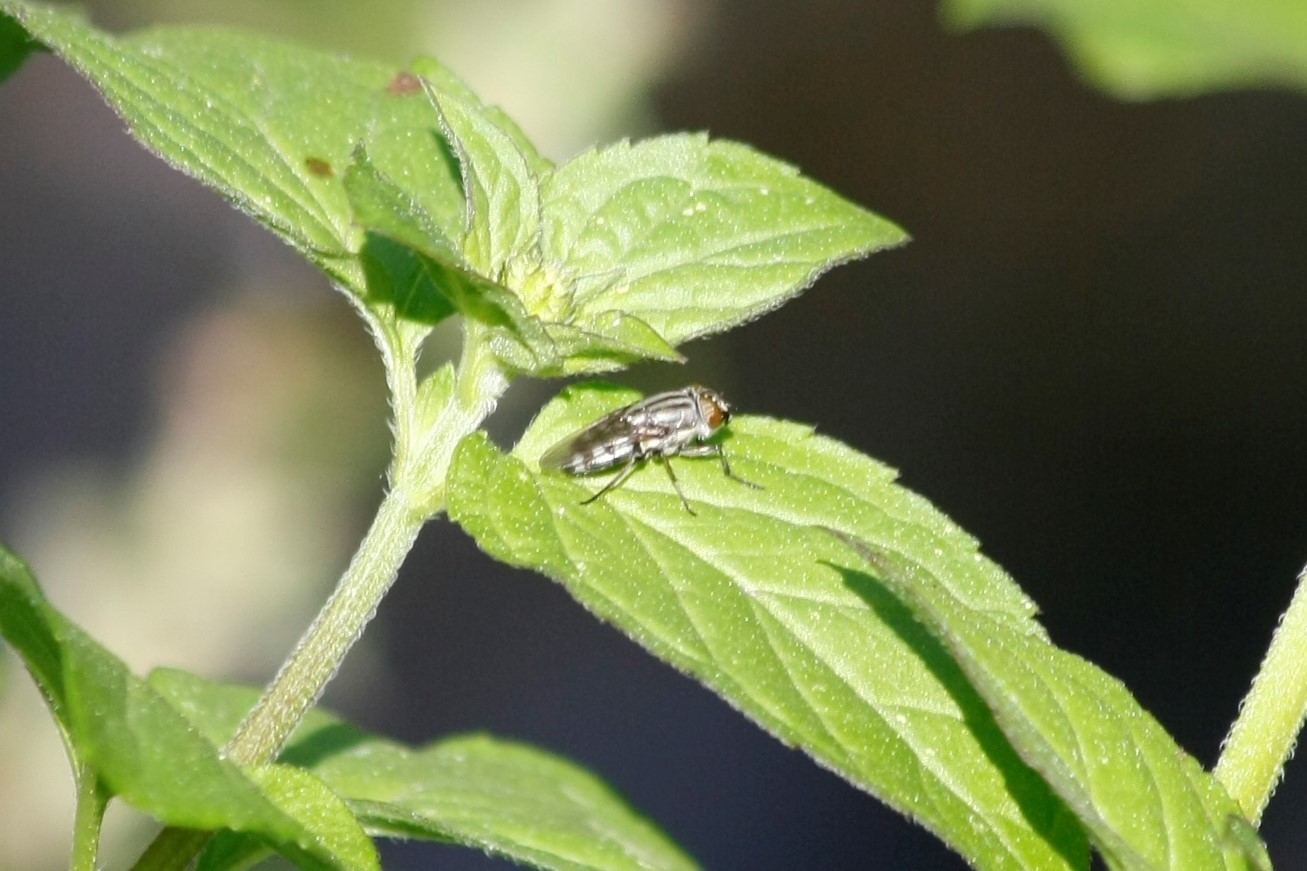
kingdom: Animalia
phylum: Arthropoda
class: Insecta
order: Diptera
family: Calliphoridae
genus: Stomorhina
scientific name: Stomorhina lunata
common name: Locust blowfly
